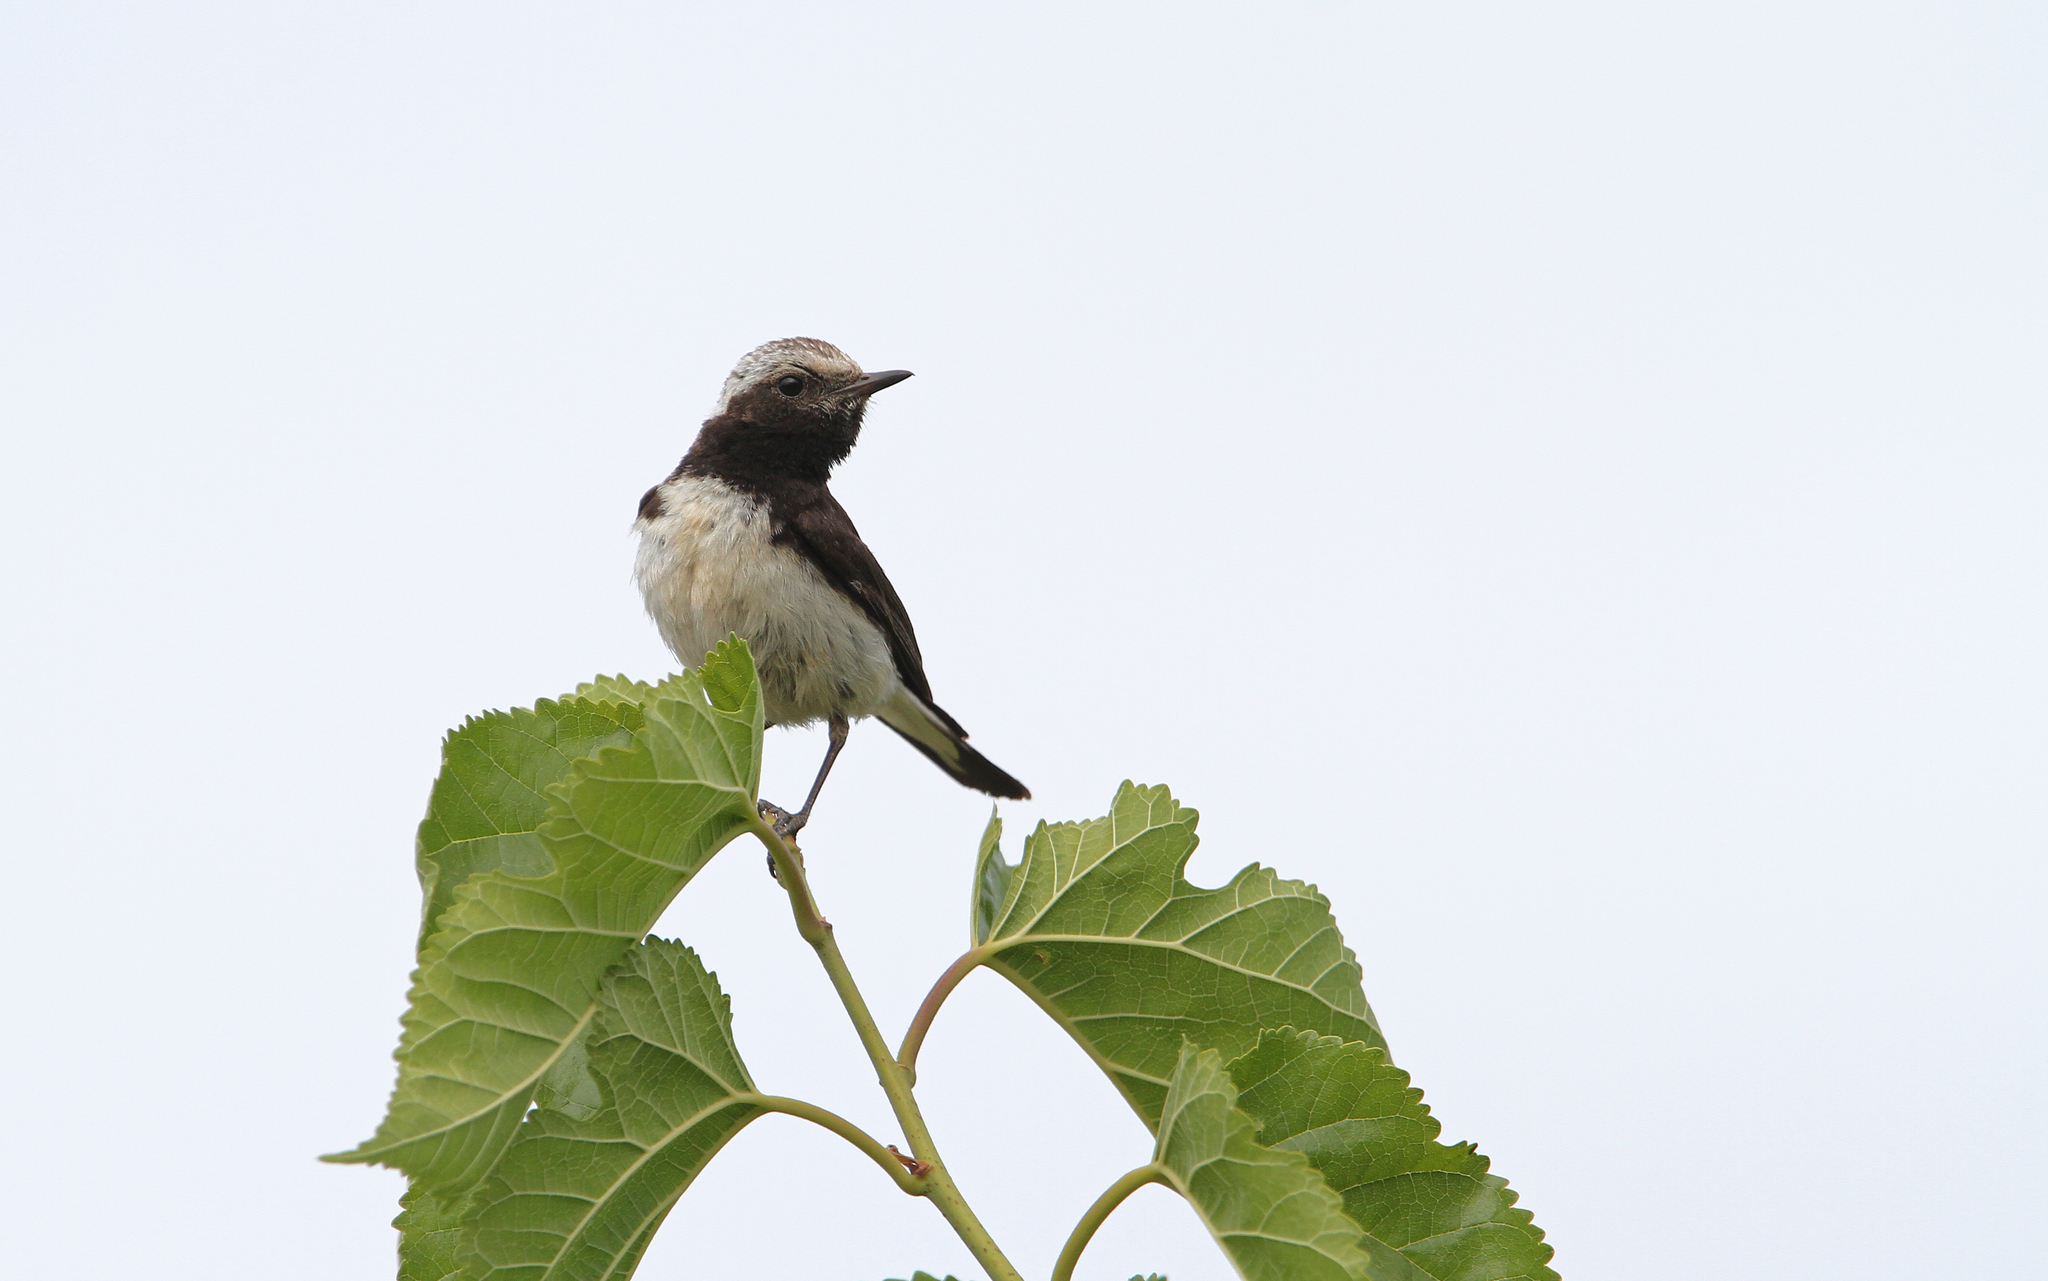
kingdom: Animalia
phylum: Chordata
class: Aves
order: Passeriformes
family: Muscicapidae
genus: Oenanthe
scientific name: Oenanthe cypriaca
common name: Cyprus wheatear
